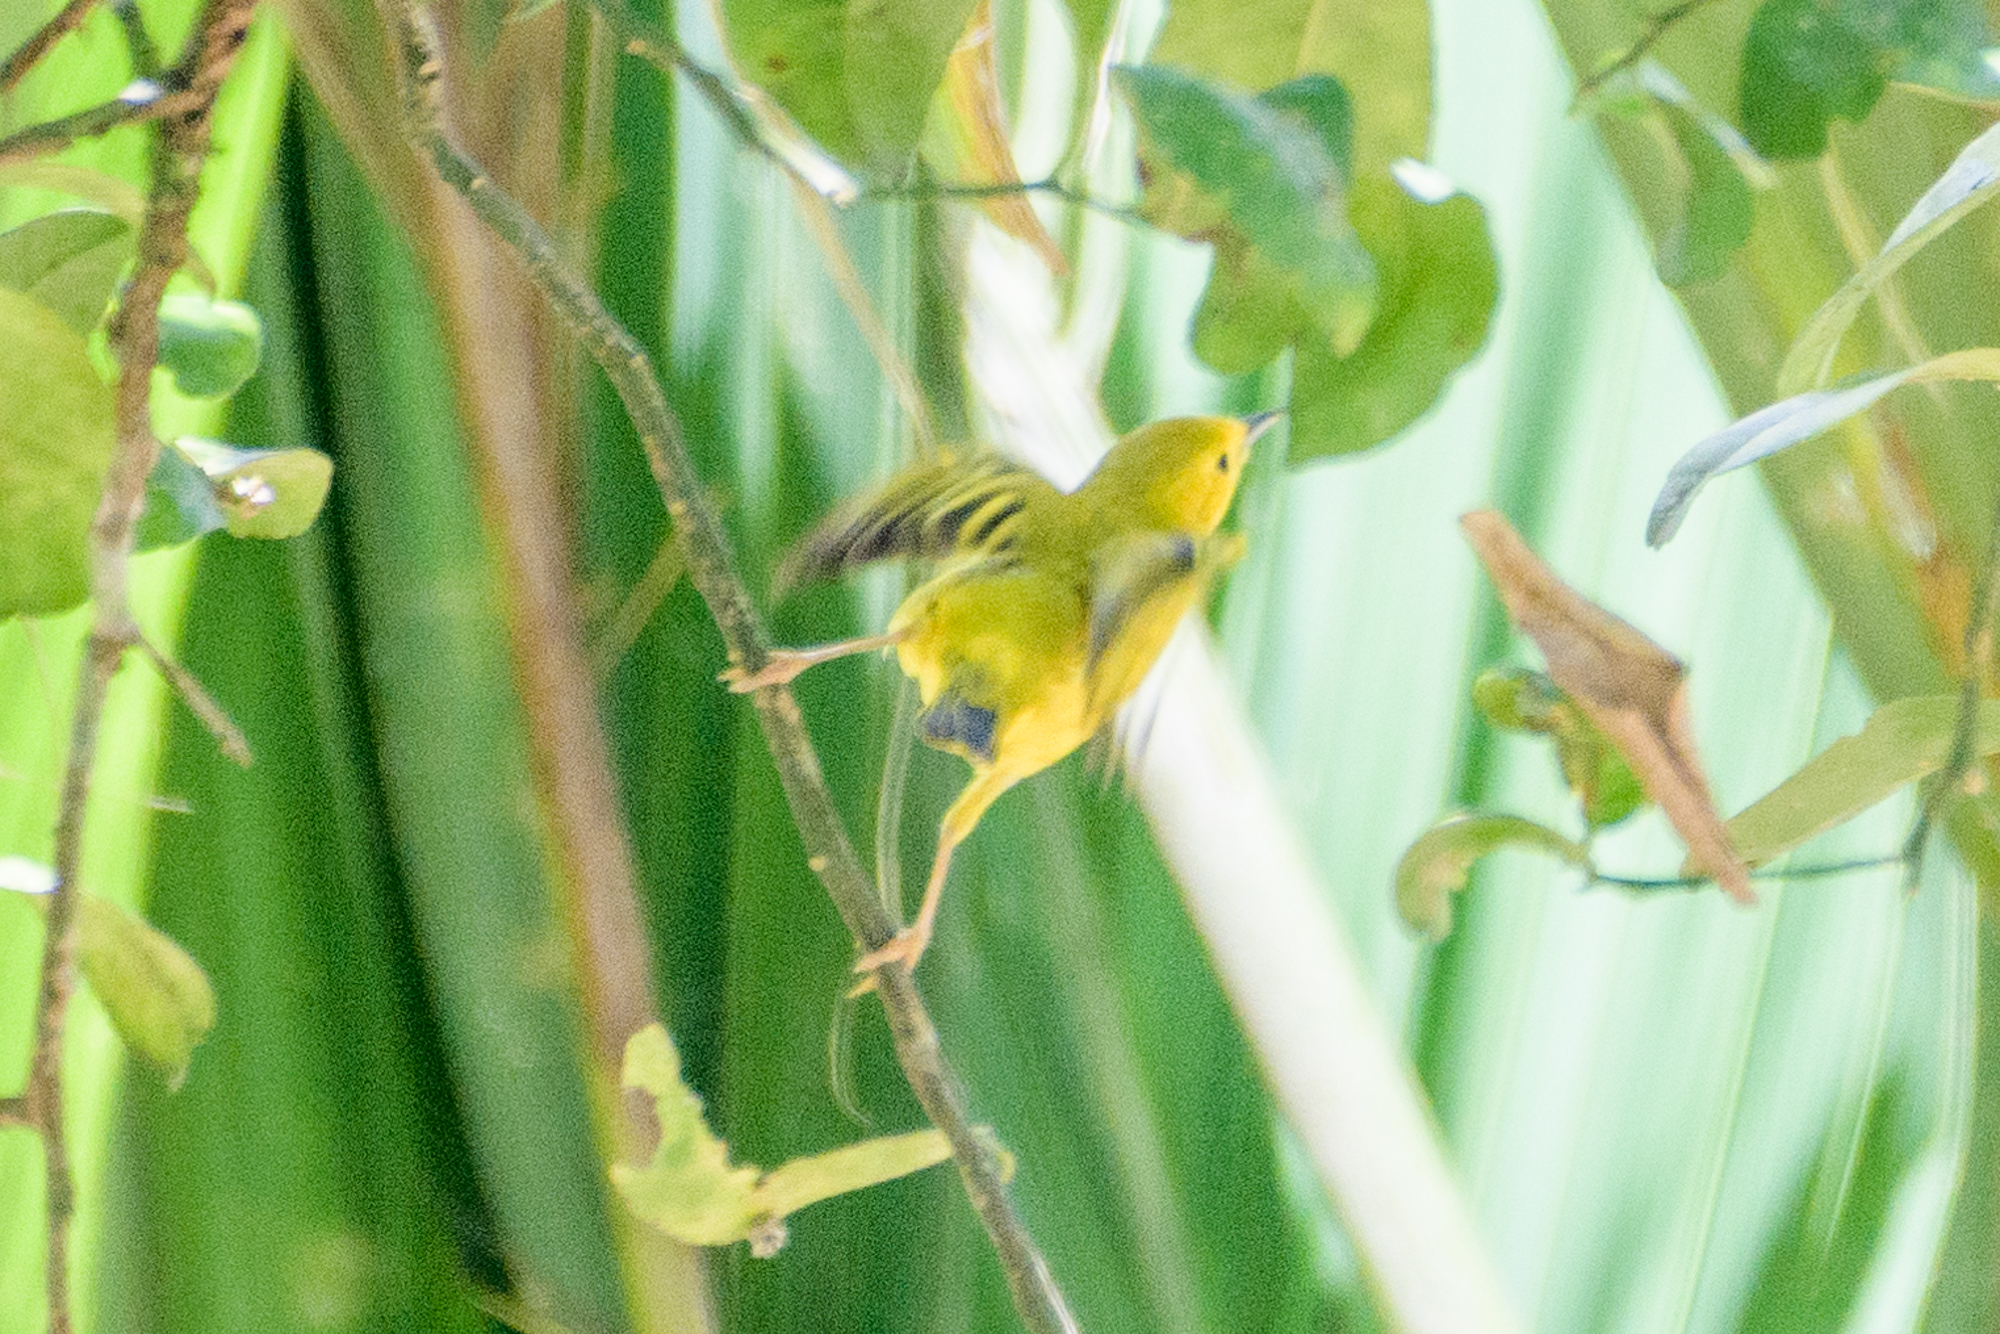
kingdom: Animalia
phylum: Chordata
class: Aves
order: Passeriformes
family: Parulidae
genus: Setophaga
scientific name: Setophaga petechia
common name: Yellow warbler
